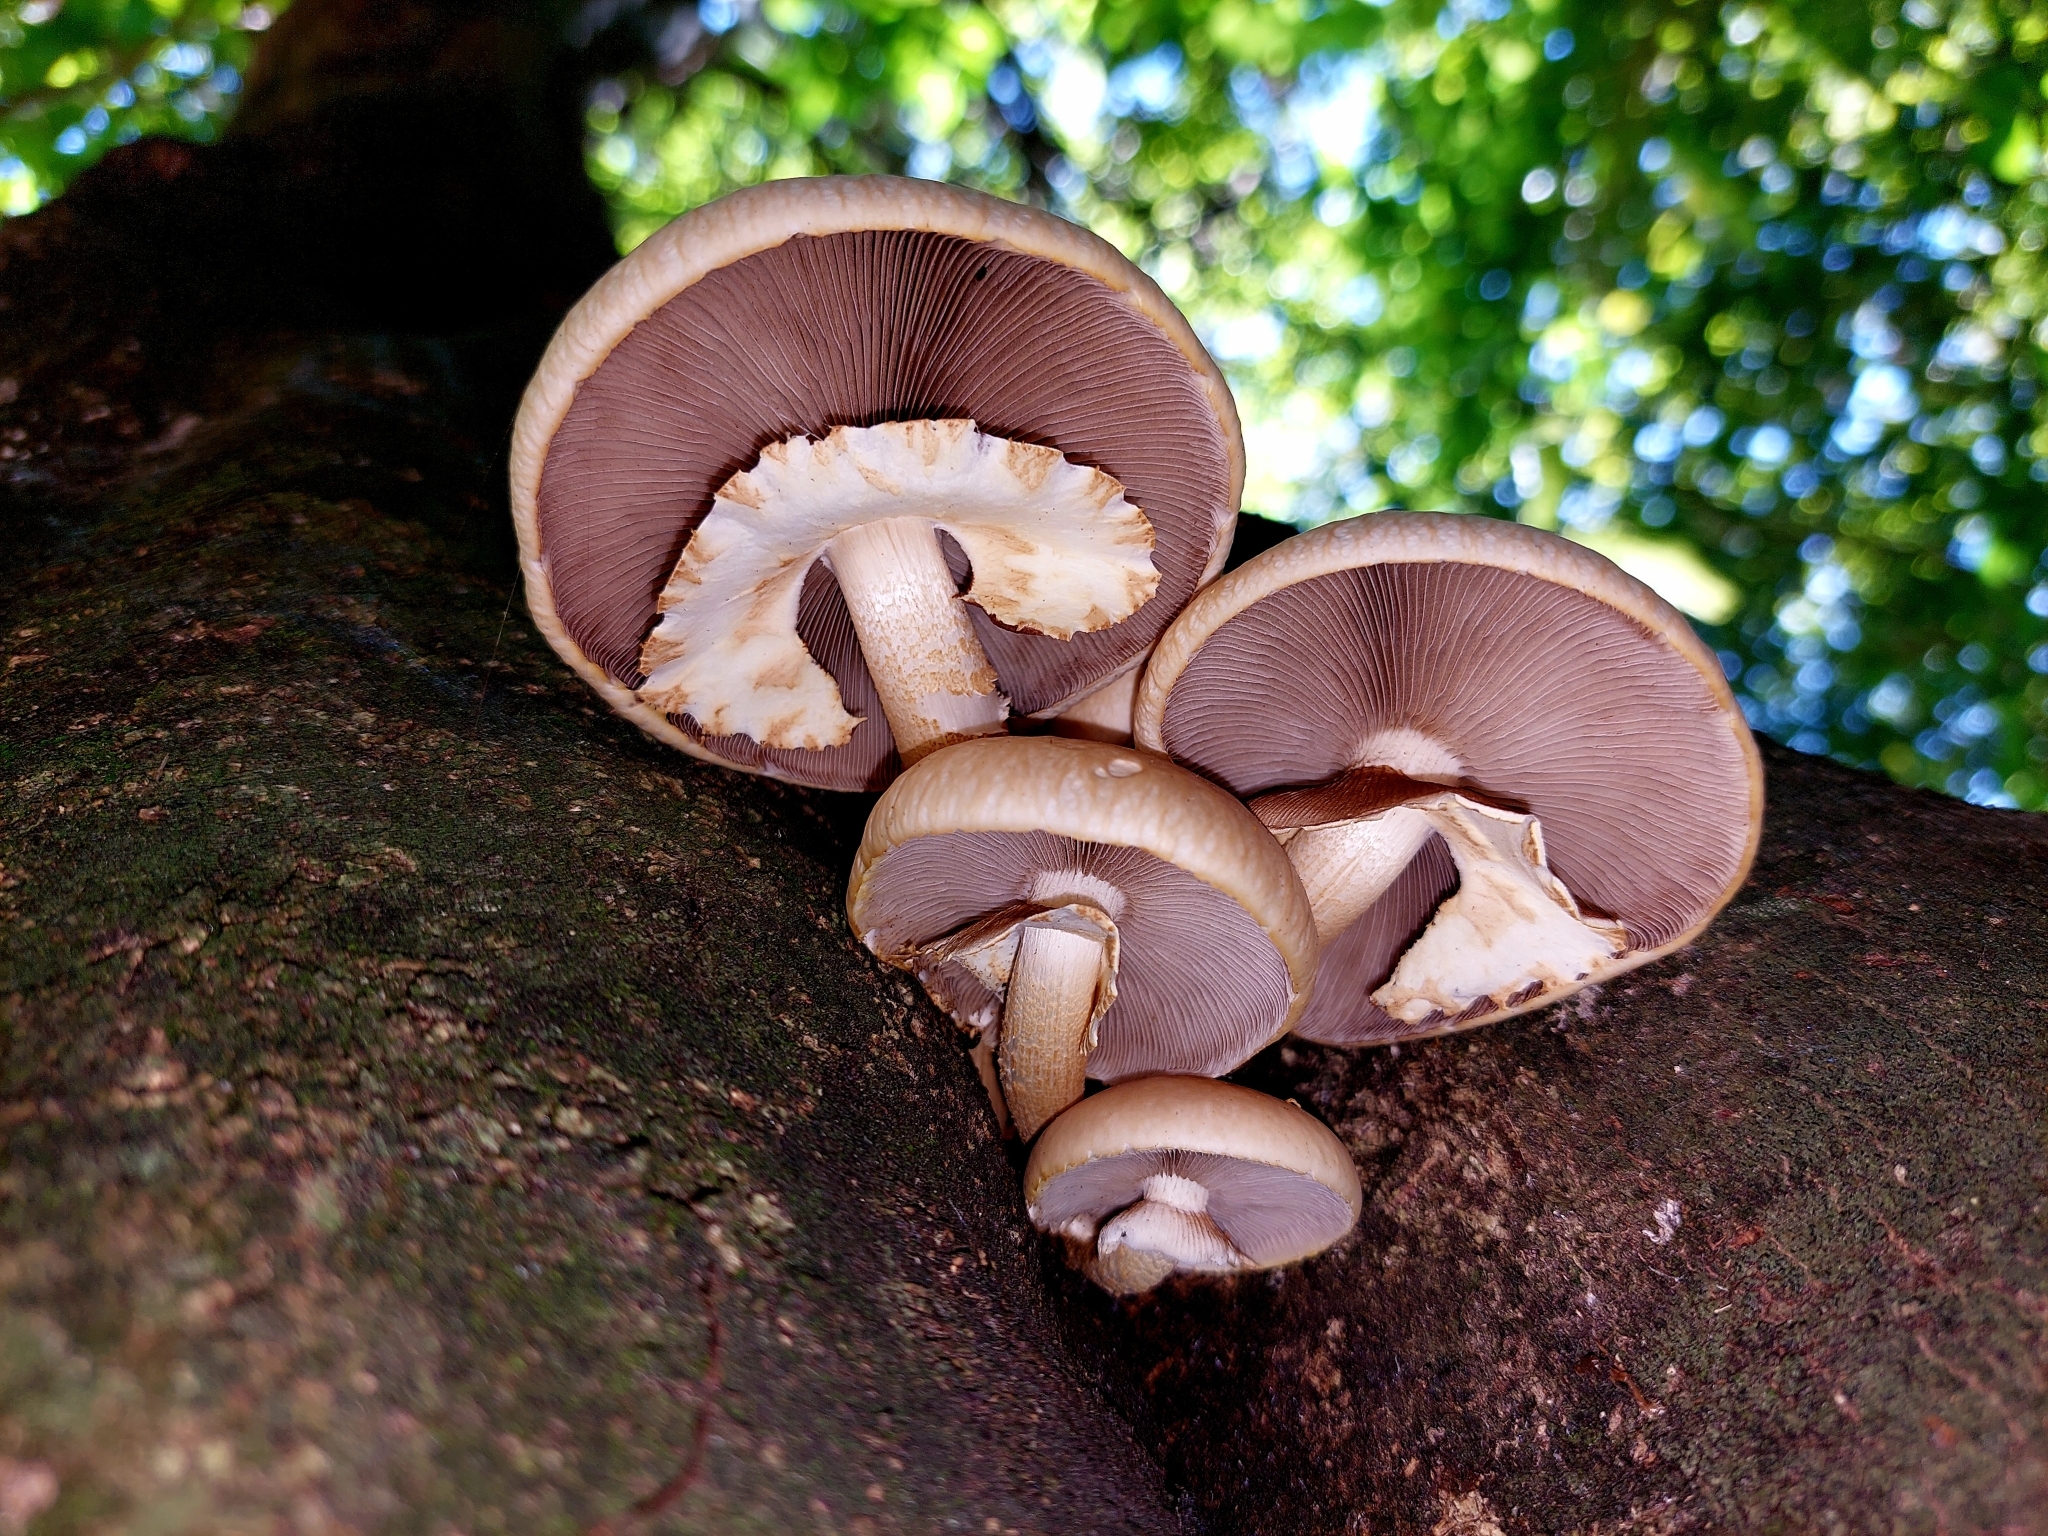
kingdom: Fungi
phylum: Basidiomycota
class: Agaricomycetes
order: Agaricales
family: Tubariaceae
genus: Cyclocybe
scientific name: Cyclocybe parasitica
